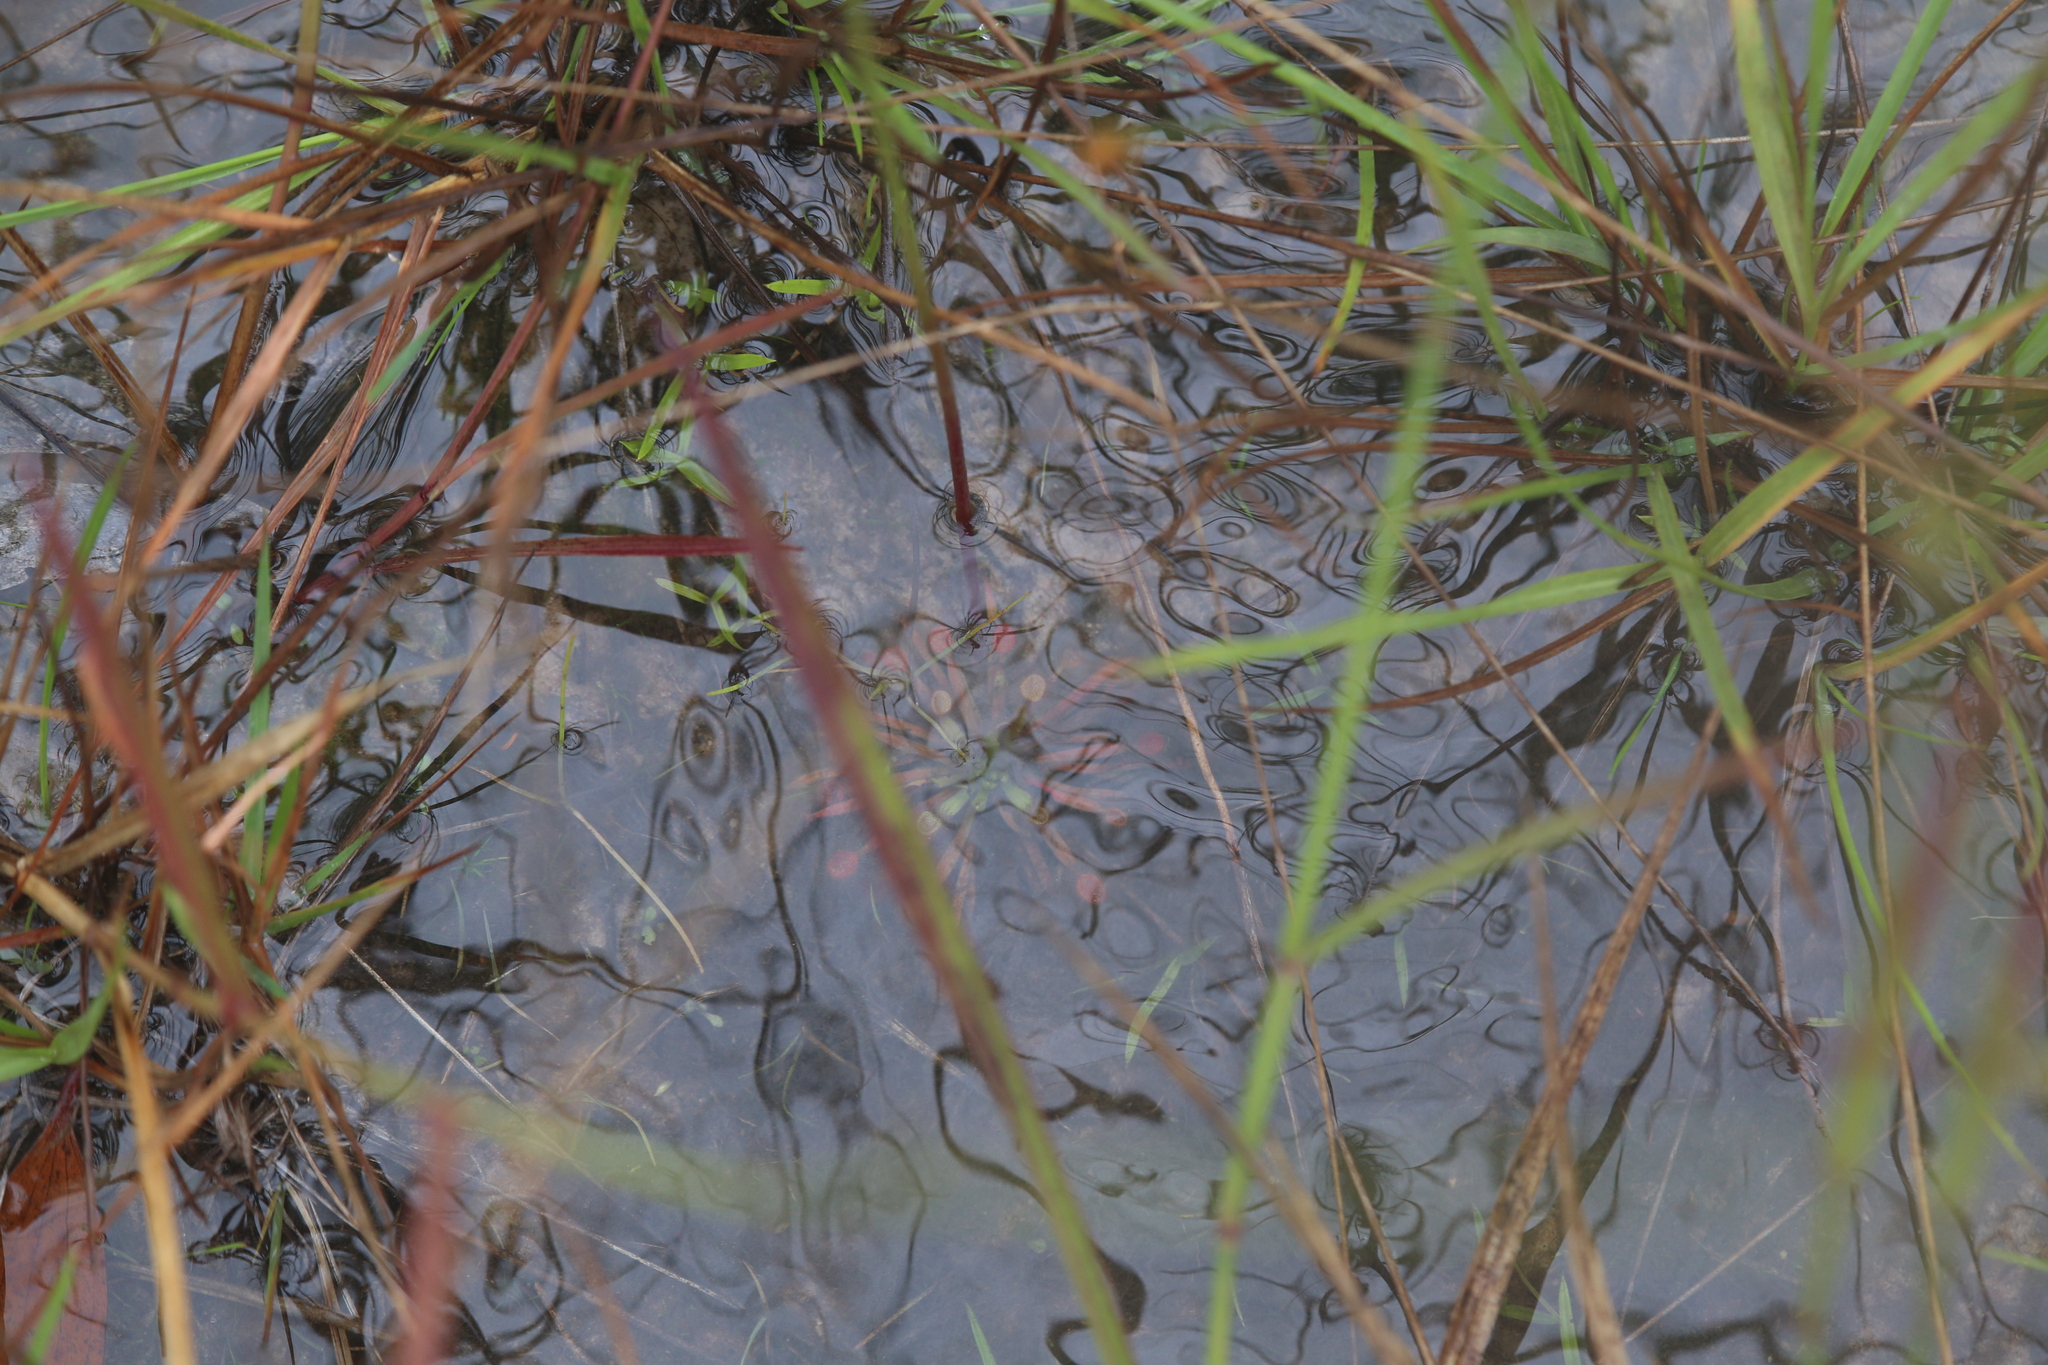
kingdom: Plantae
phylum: Tracheophyta
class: Magnoliopsida
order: Caryophyllales
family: Droseraceae
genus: Drosera
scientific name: Drosera fulva
